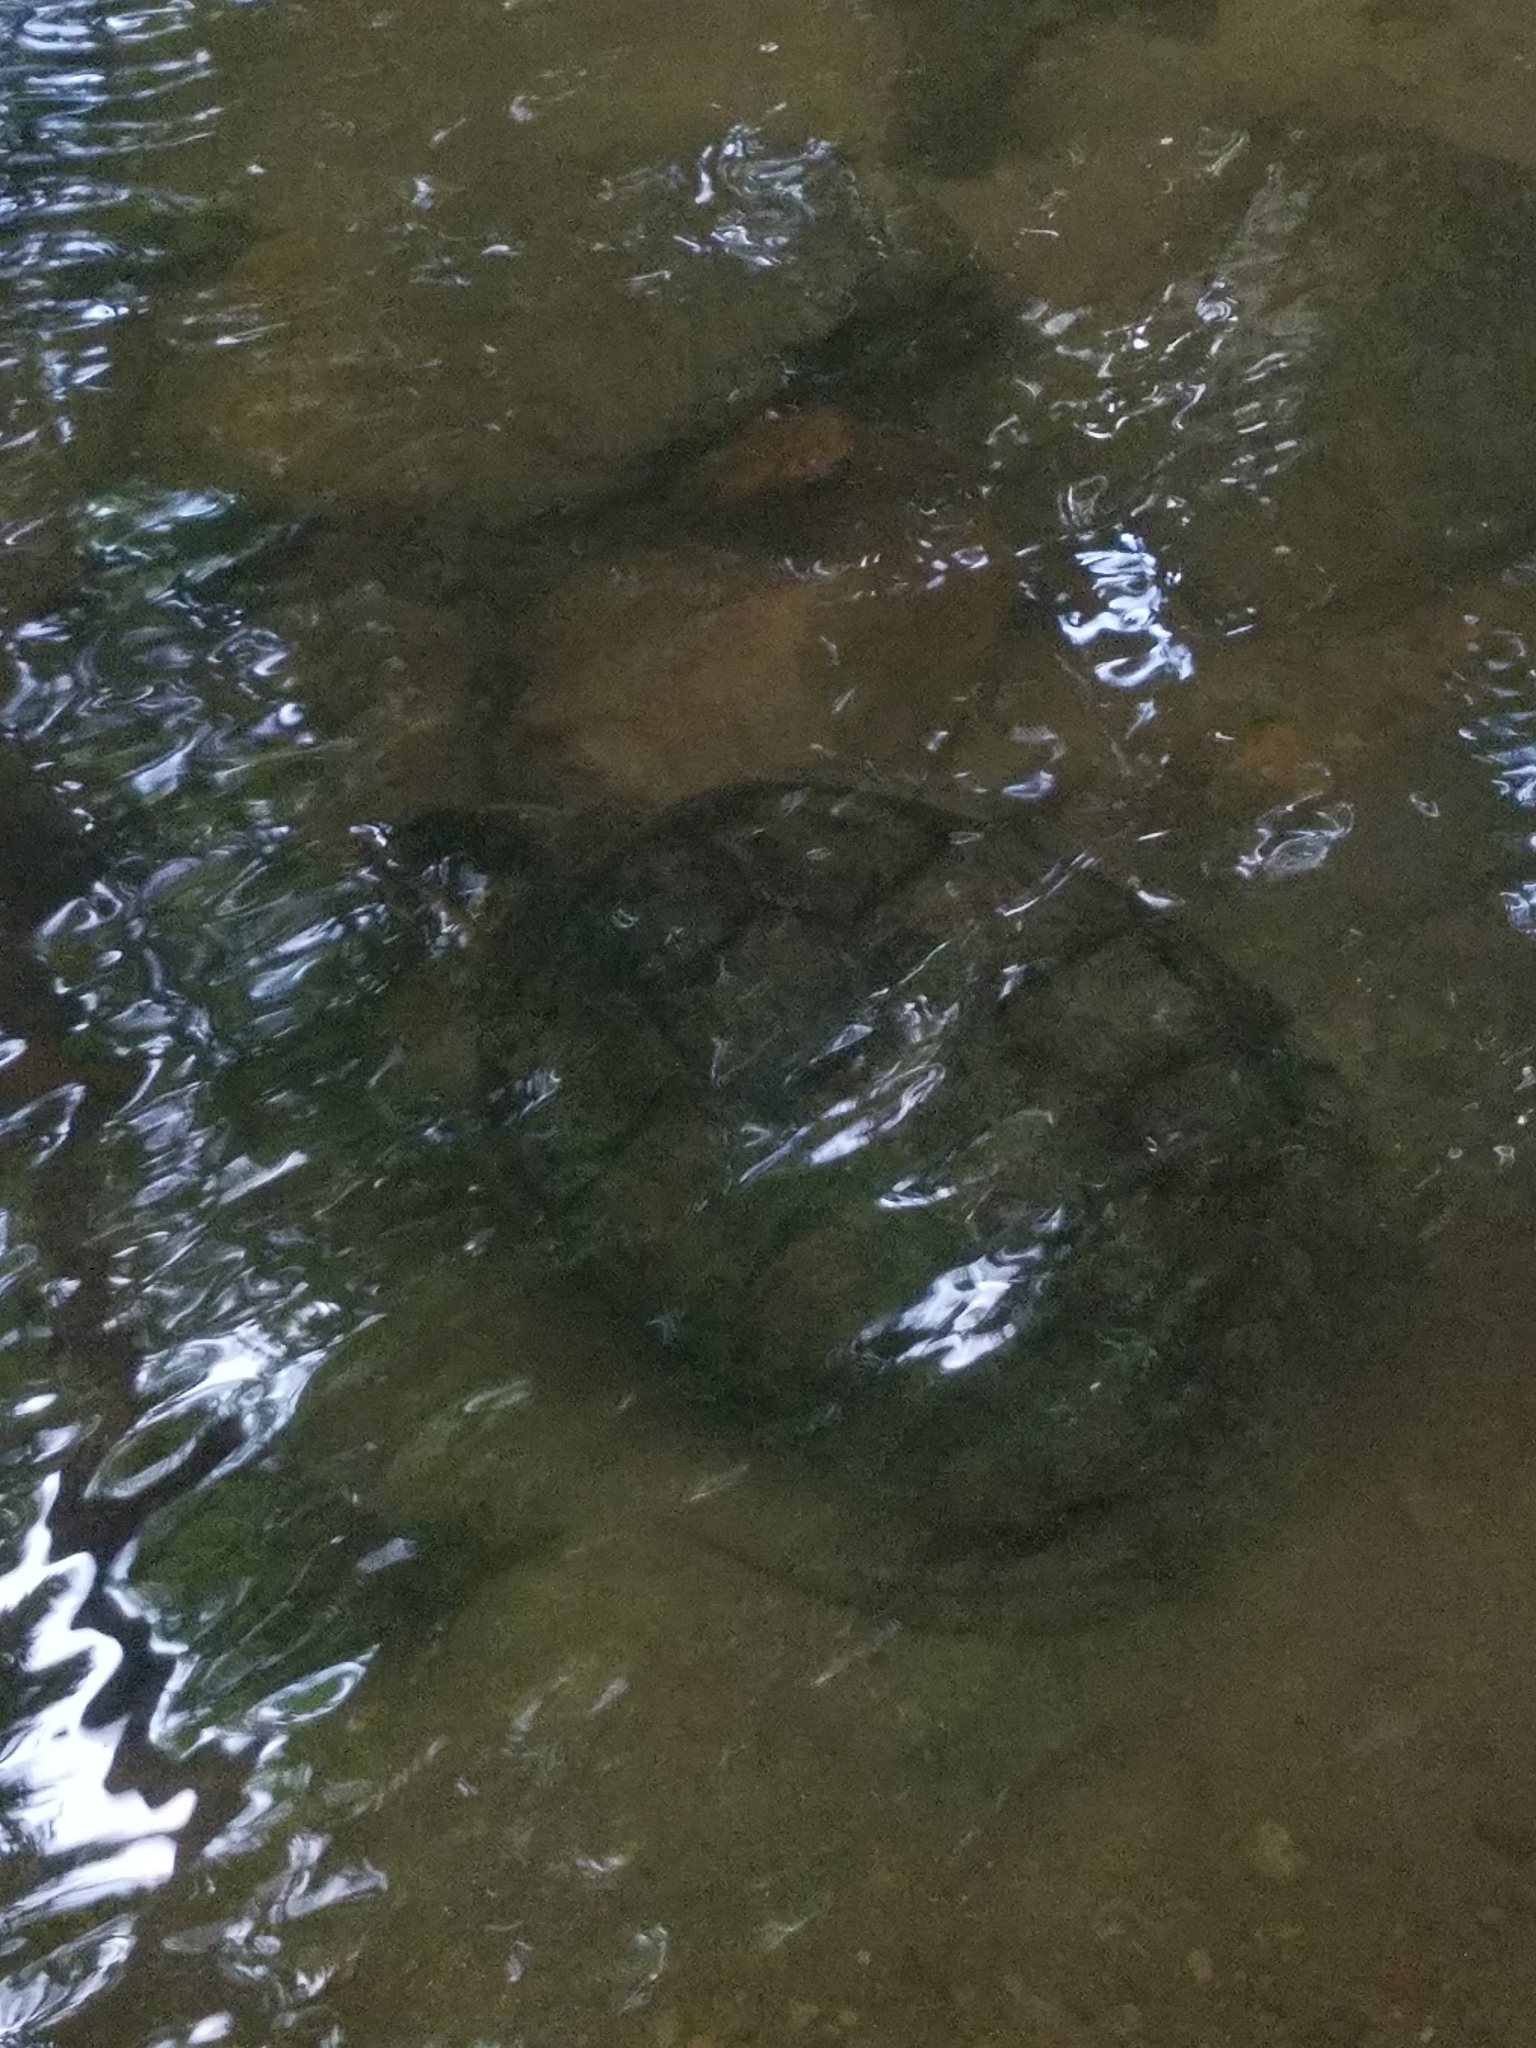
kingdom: Animalia
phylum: Chordata
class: Testudines
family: Chelydridae
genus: Chelydra
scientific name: Chelydra serpentina
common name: Common snapping turtle
